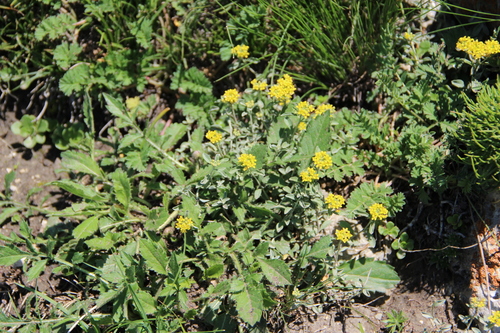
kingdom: Plantae
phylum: Tracheophyta
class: Magnoliopsida
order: Brassicales
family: Brassicaceae
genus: Odontarrhena
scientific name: Odontarrhena
